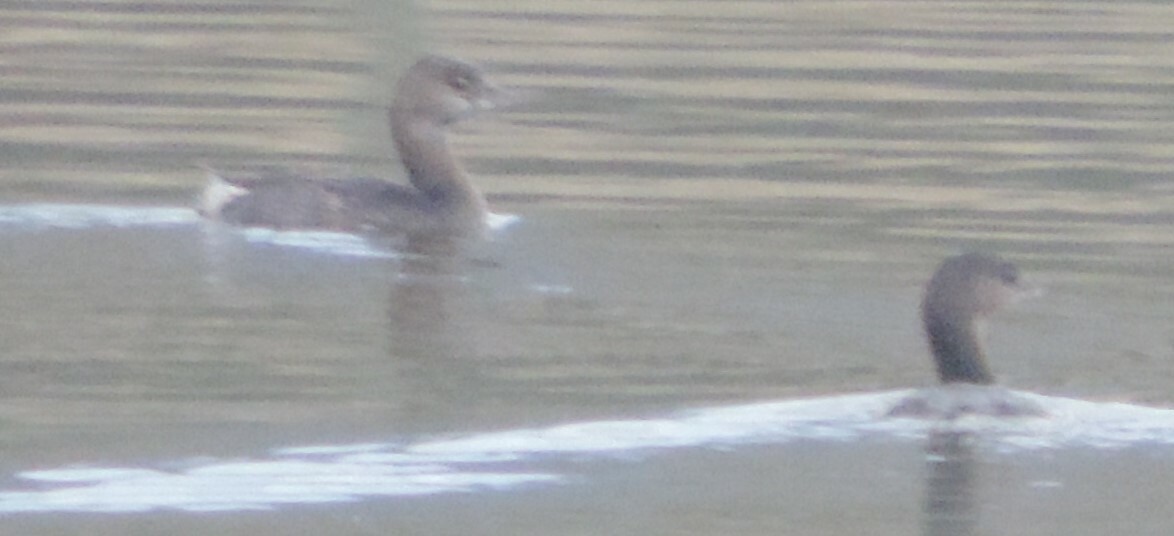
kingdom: Animalia
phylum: Chordata
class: Aves
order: Podicipediformes
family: Podicipedidae
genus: Podilymbus
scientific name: Podilymbus podiceps
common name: Pied-billed grebe
